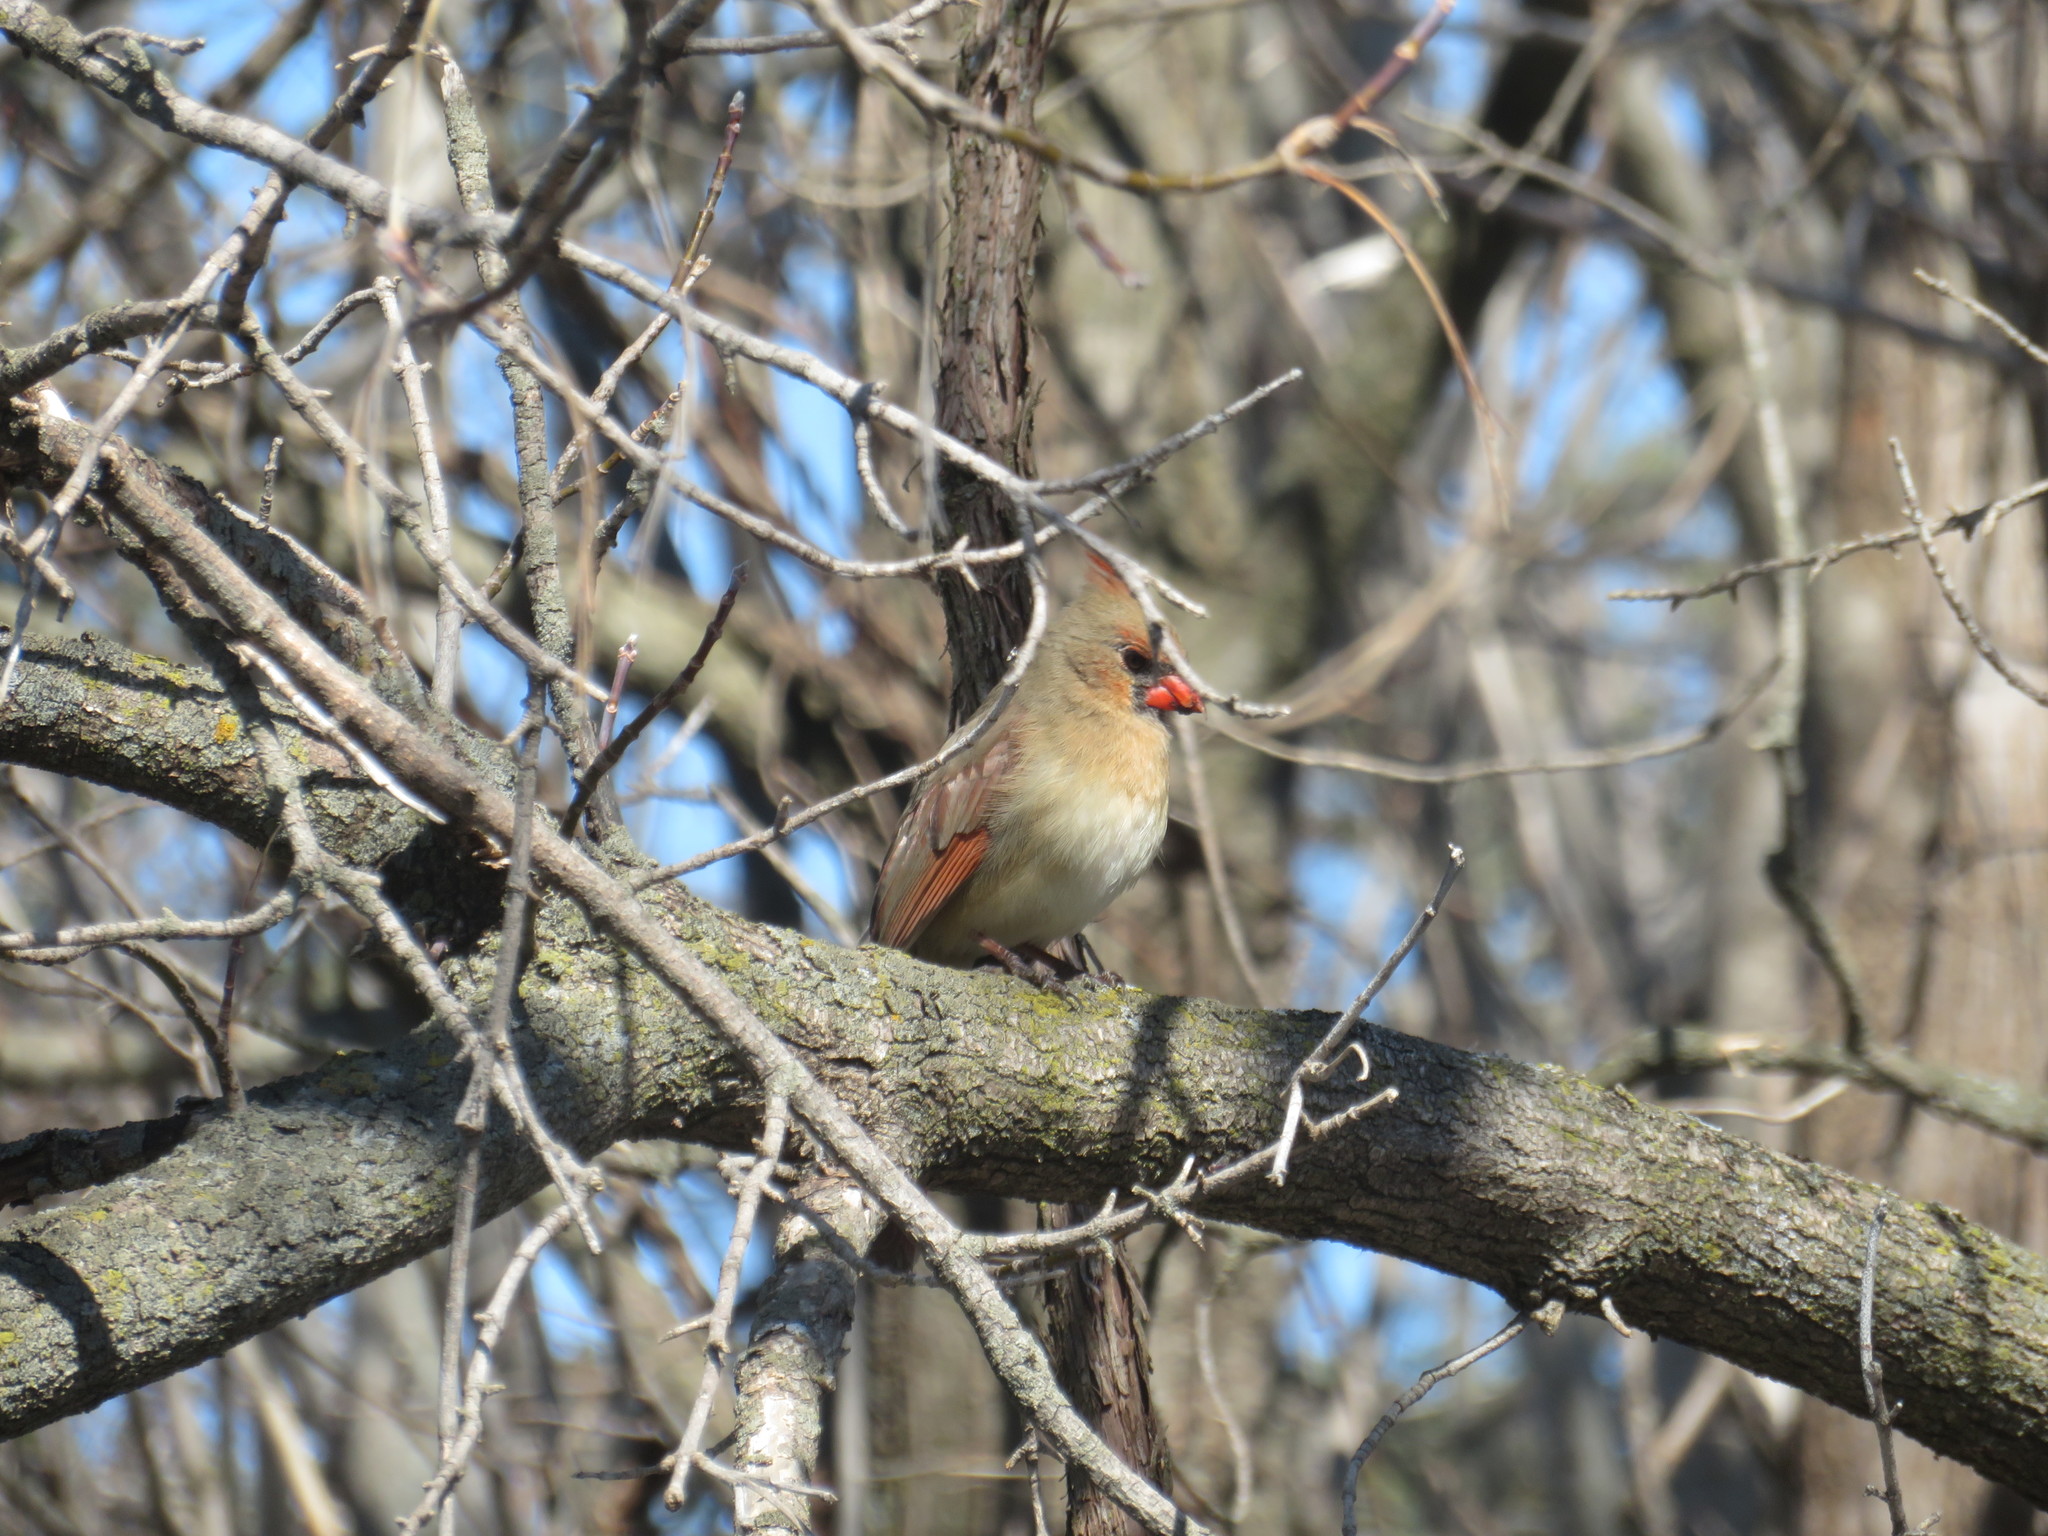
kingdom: Animalia
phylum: Chordata
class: Aves
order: Passeriformes
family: Cardinalidae
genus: Cardinalis
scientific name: Cardinalis cardinalis
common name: Northern cardinal
